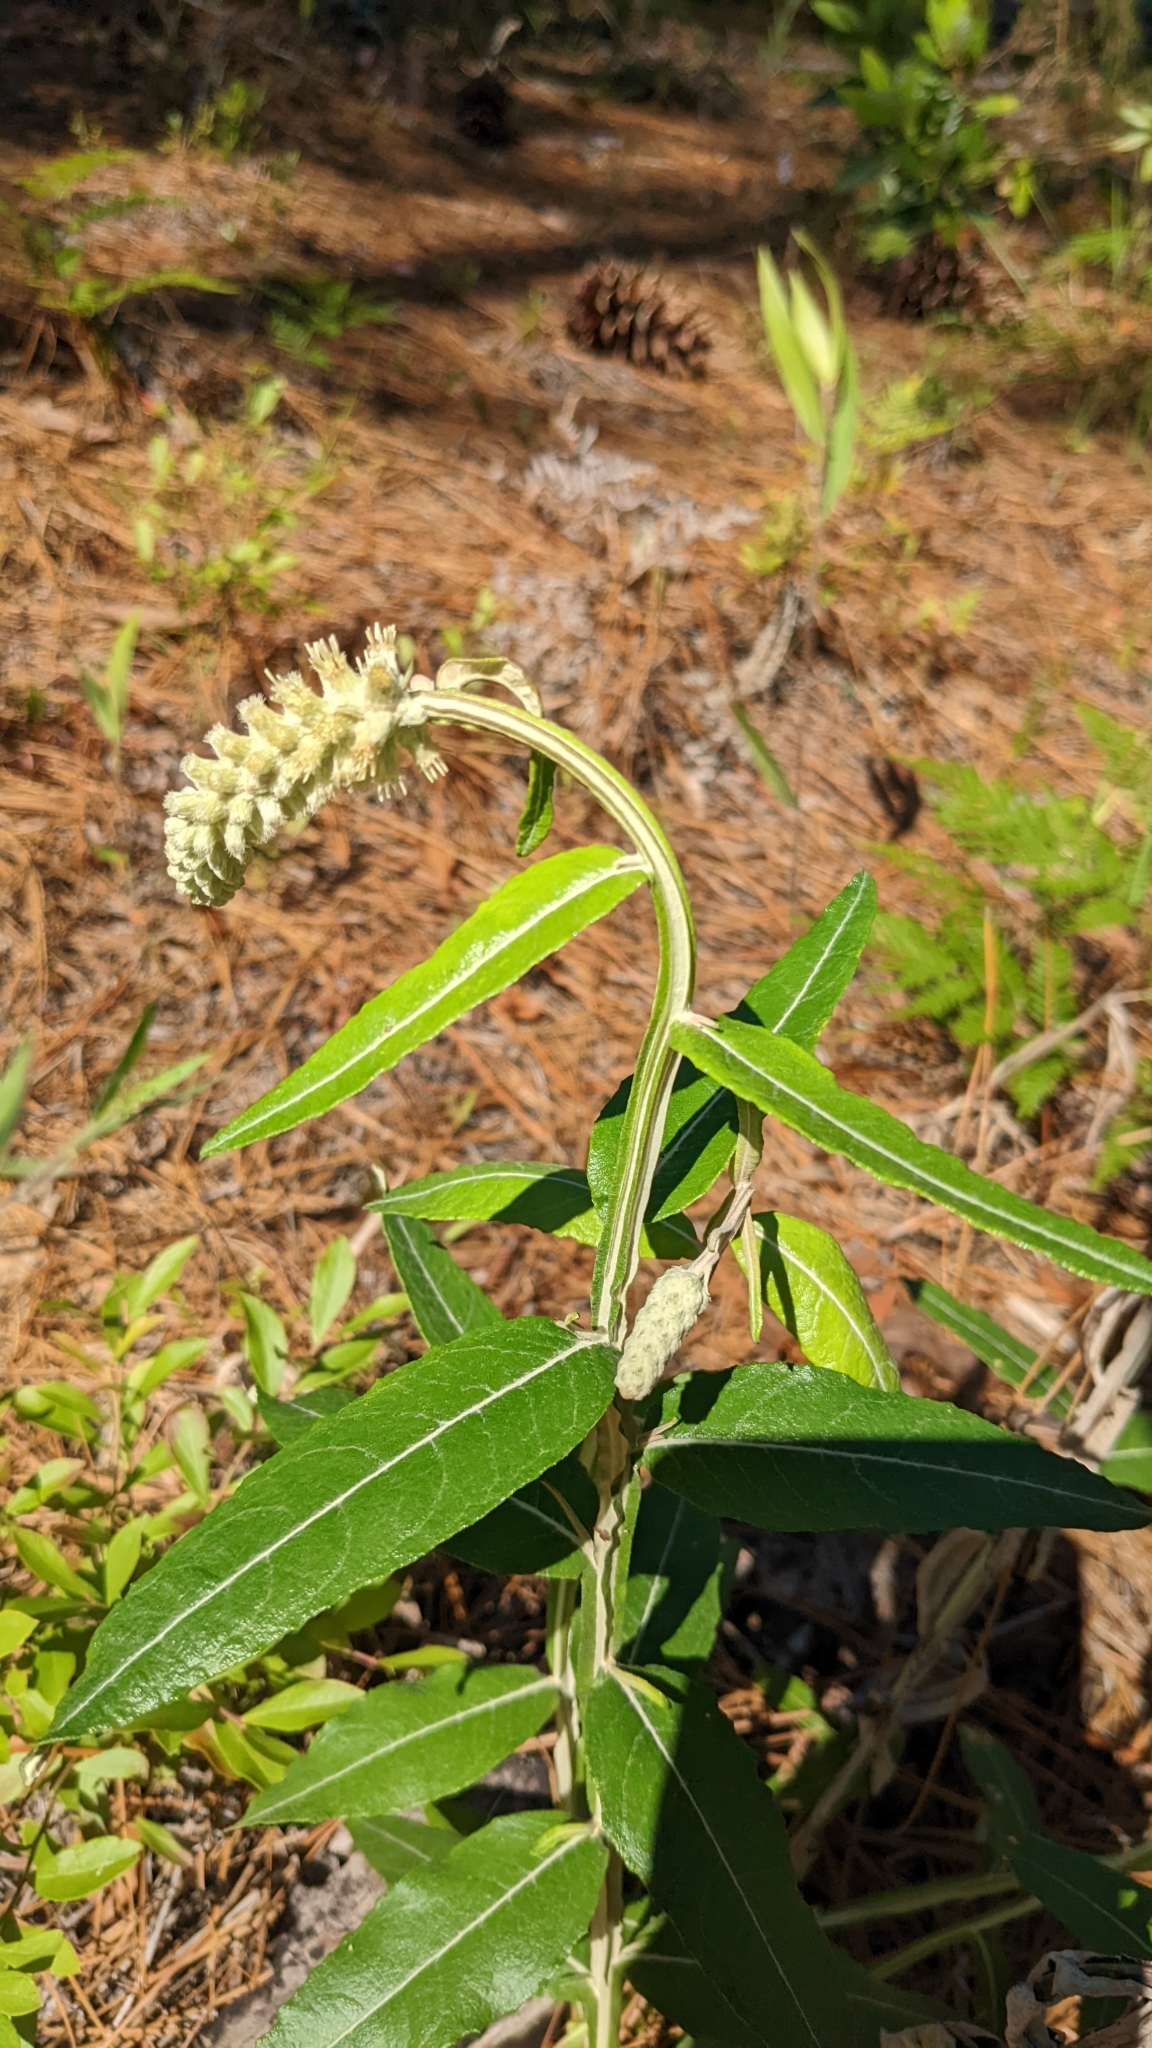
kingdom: Plantae
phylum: Tracheophyta
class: Magnoliopsida
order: Asterales
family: Asteraceae
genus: Pterocaulon
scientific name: Pterocaulon pycnostachyum
